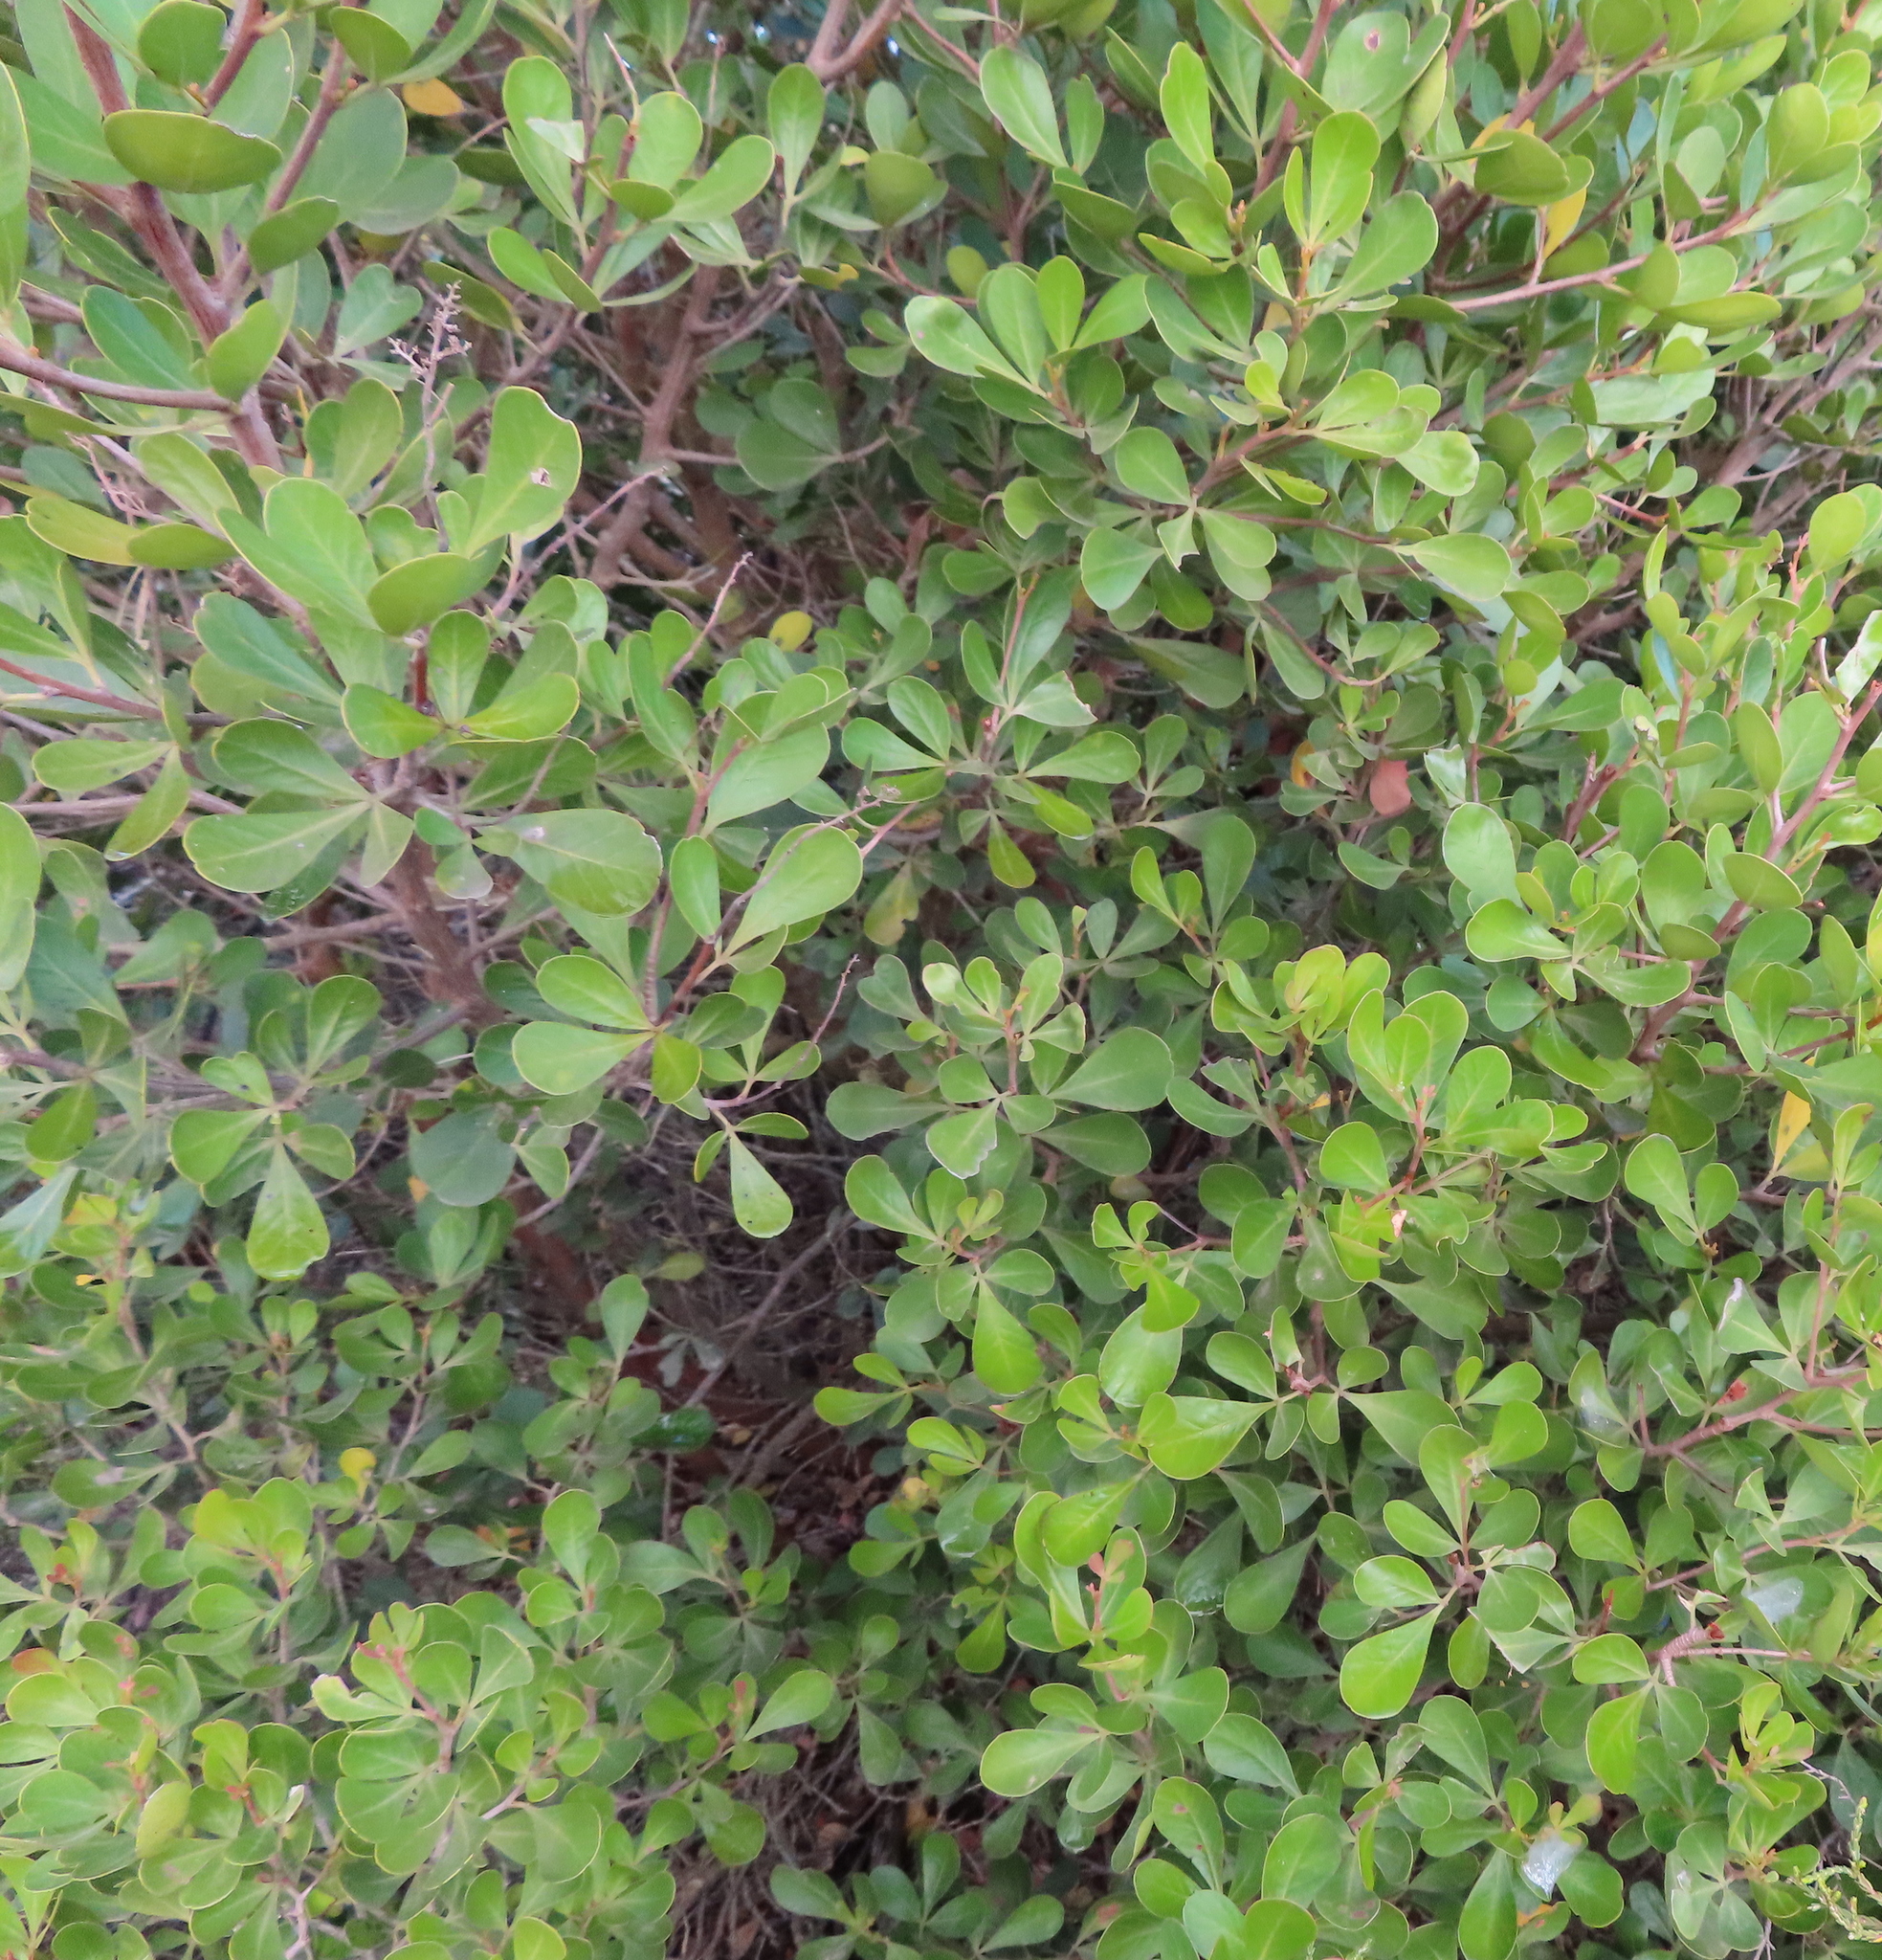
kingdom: Plantae
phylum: Tracheophyta
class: Magnoliopsida
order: Sapindales
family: Anacardiaceae
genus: Searsia
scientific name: Searsia lucida
